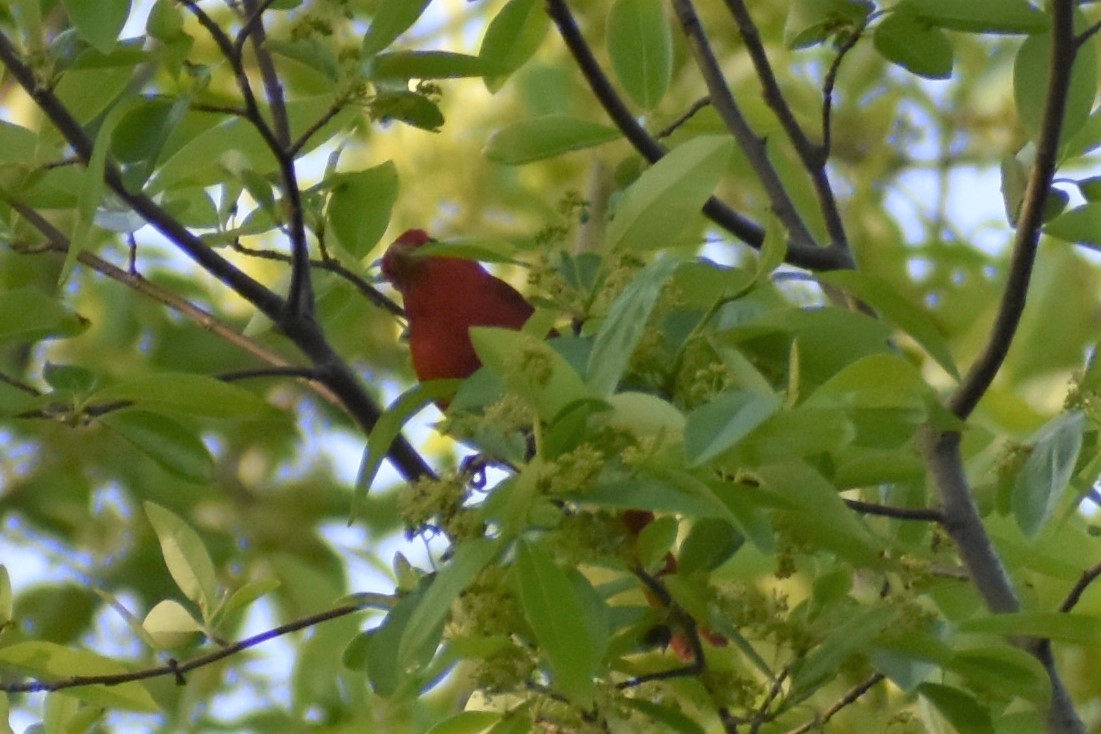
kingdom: Animalia
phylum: Chordata
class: Aves
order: Passeriformes
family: Cardinalidae
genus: Piranga
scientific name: Piranga rubra
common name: Summer tanager
